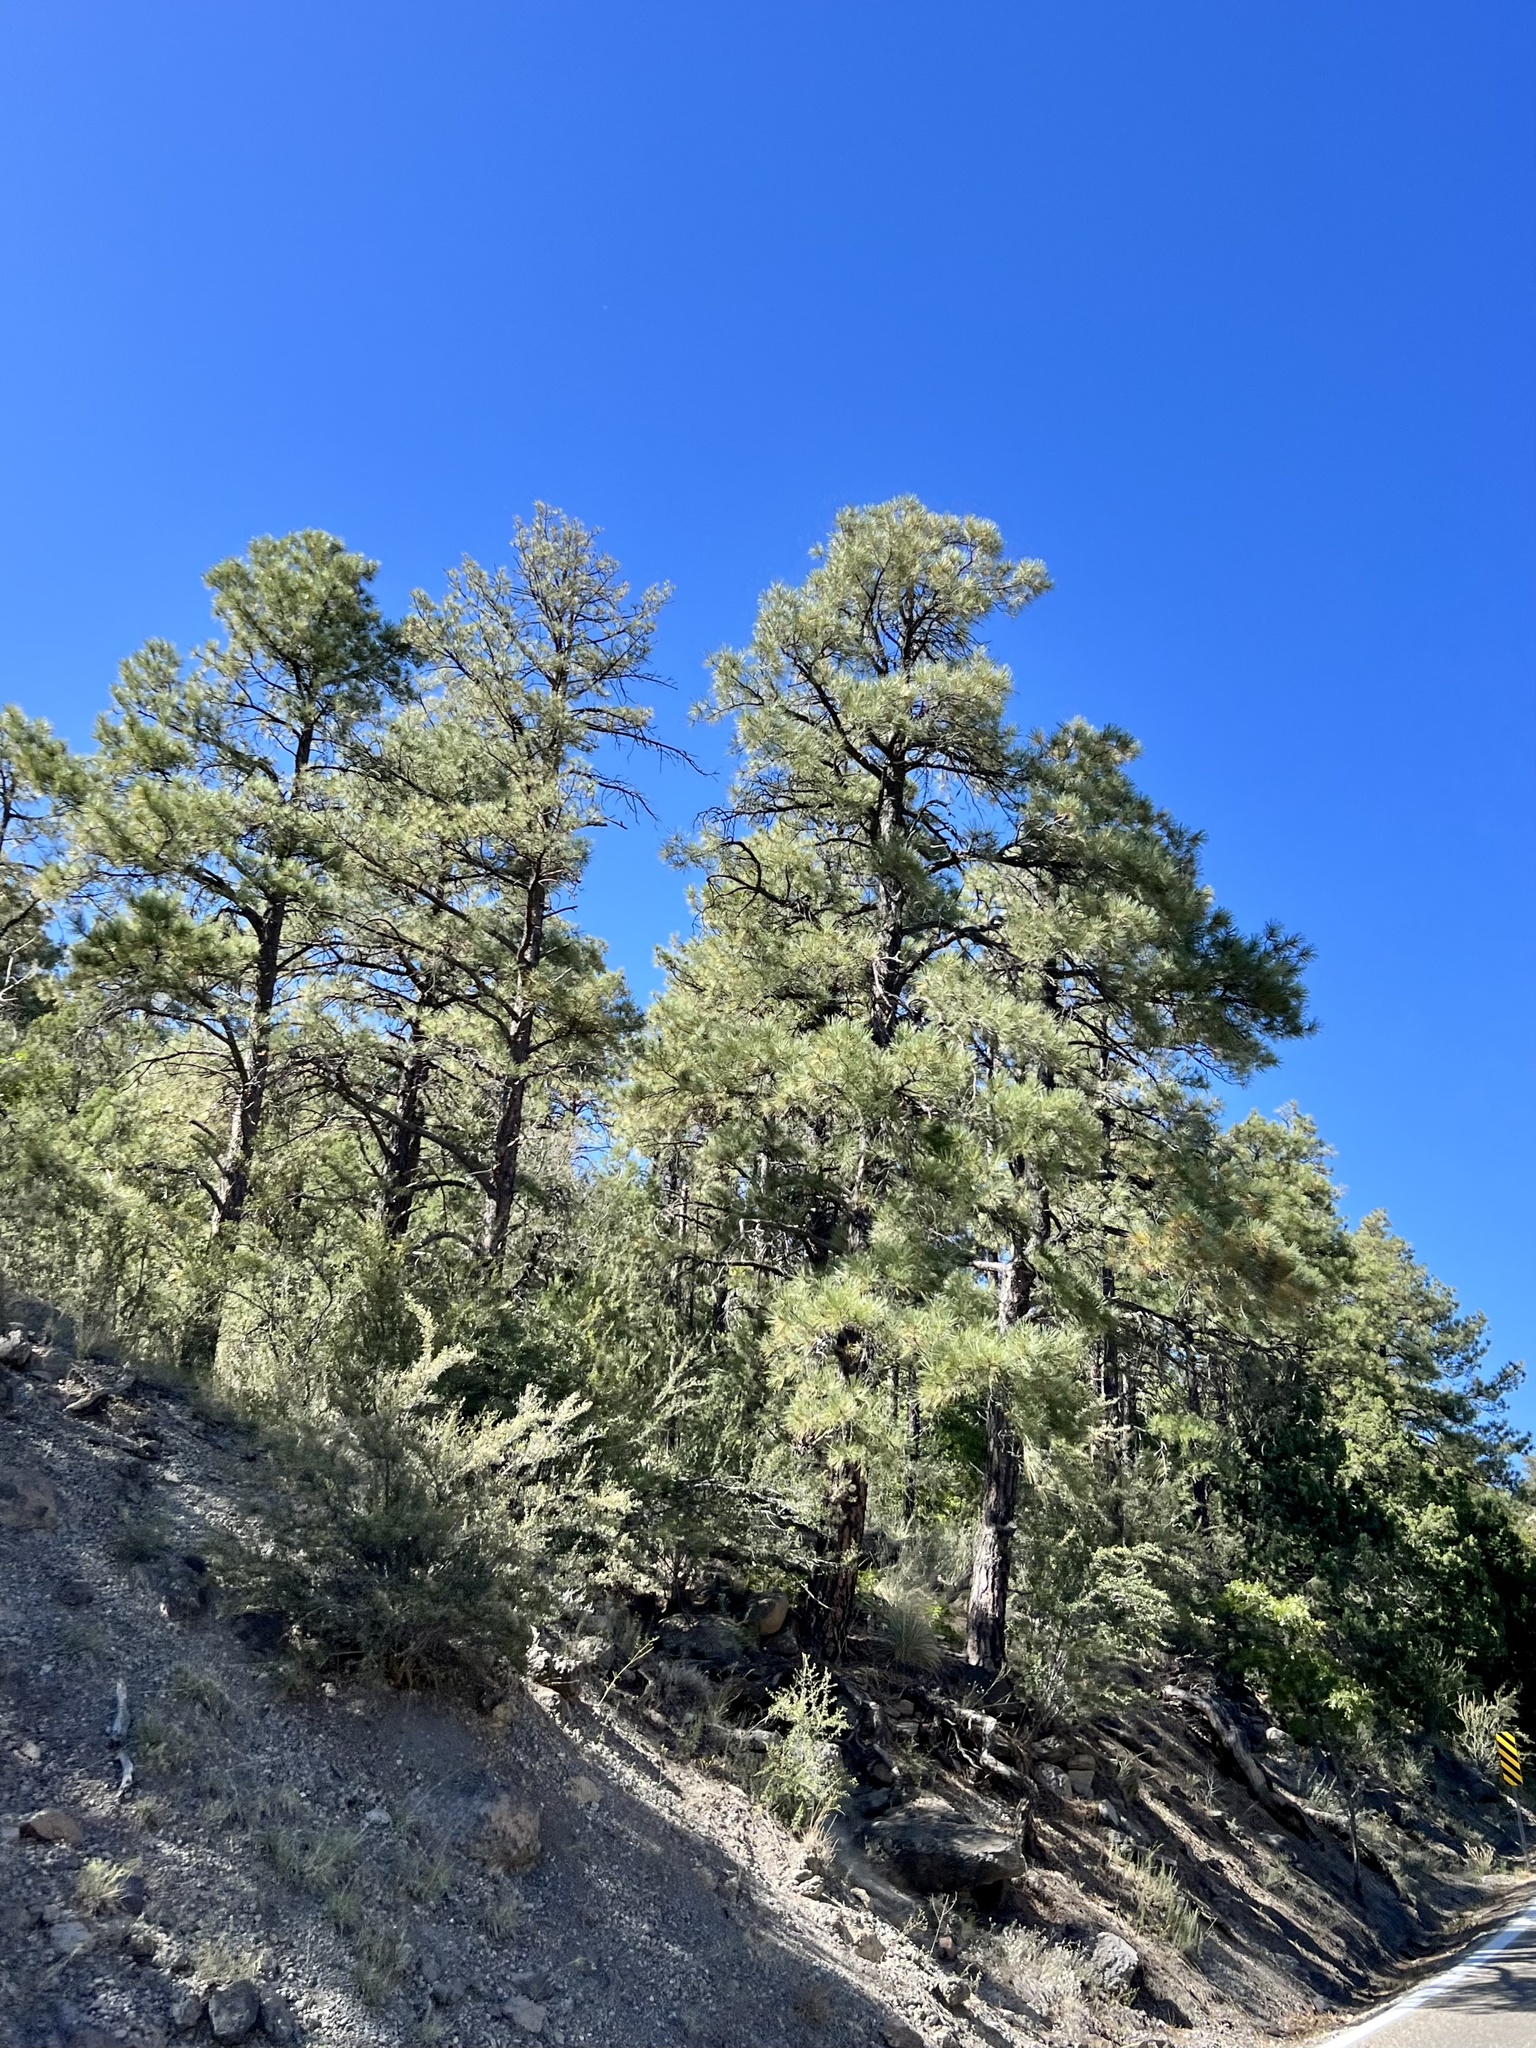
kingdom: Plantae
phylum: Tracheophyta
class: Pinopsida
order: Pinales
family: Pinaceae
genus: Pinus
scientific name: Pinus ponderosa
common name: Western yellow-pine
